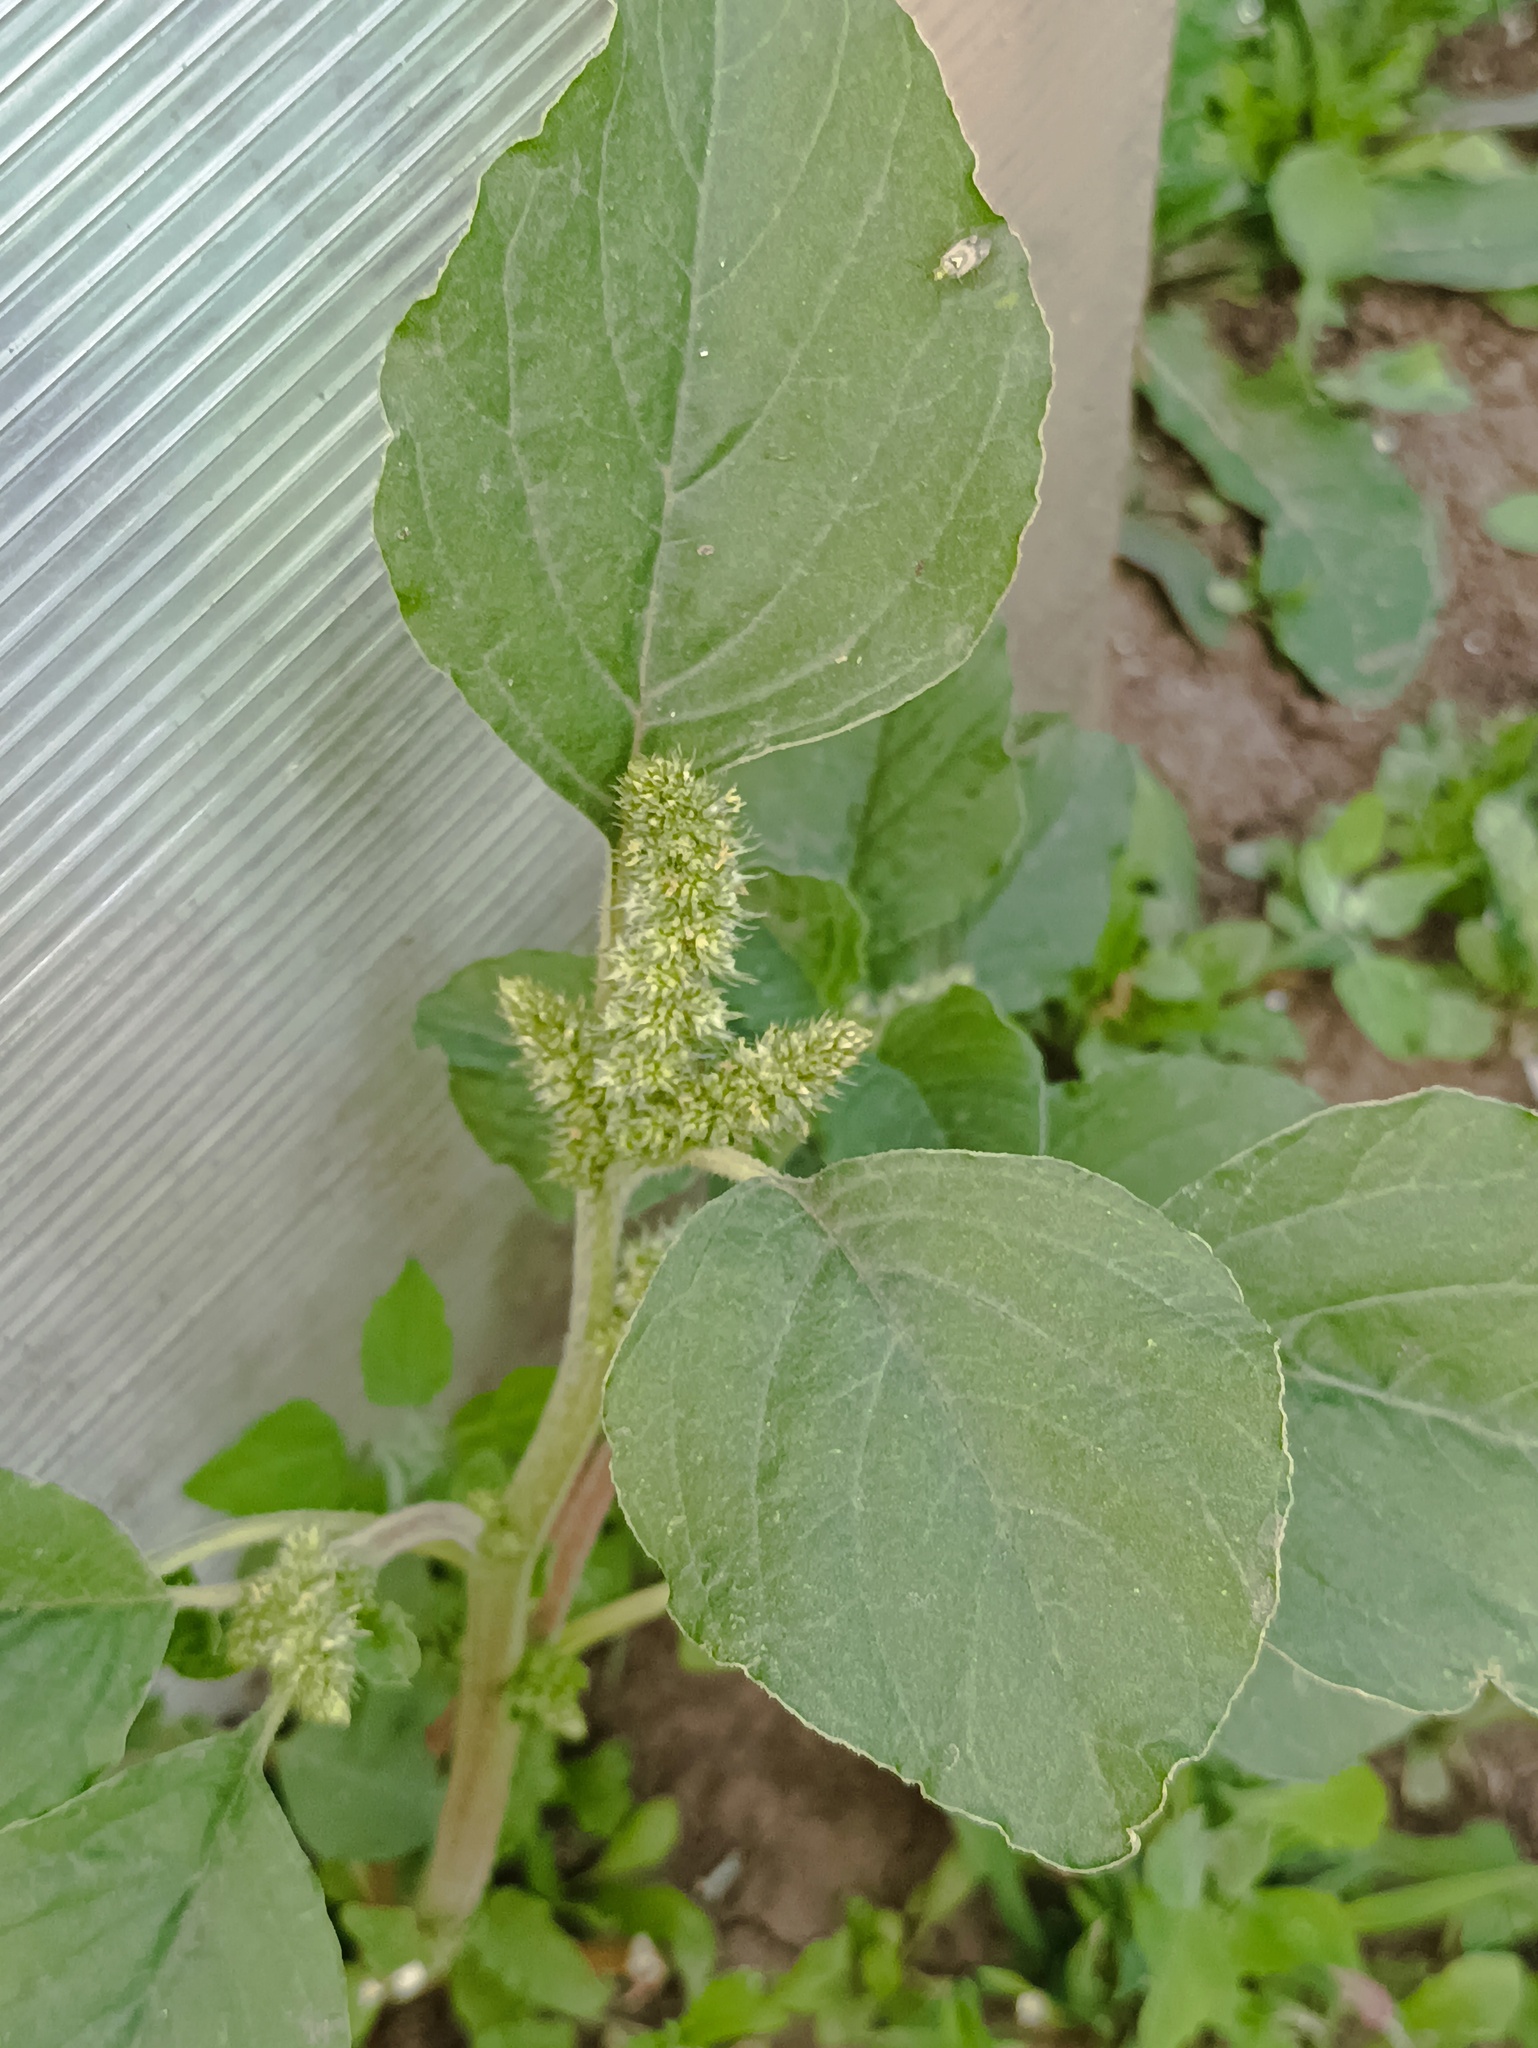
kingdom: Plantae
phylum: Tracheophyta
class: Magnoliopsida
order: Caryophyllales
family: Amaranthaceae
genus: Amaranthus
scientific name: Amaranthus retroflexus
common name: Redroot amaranth
